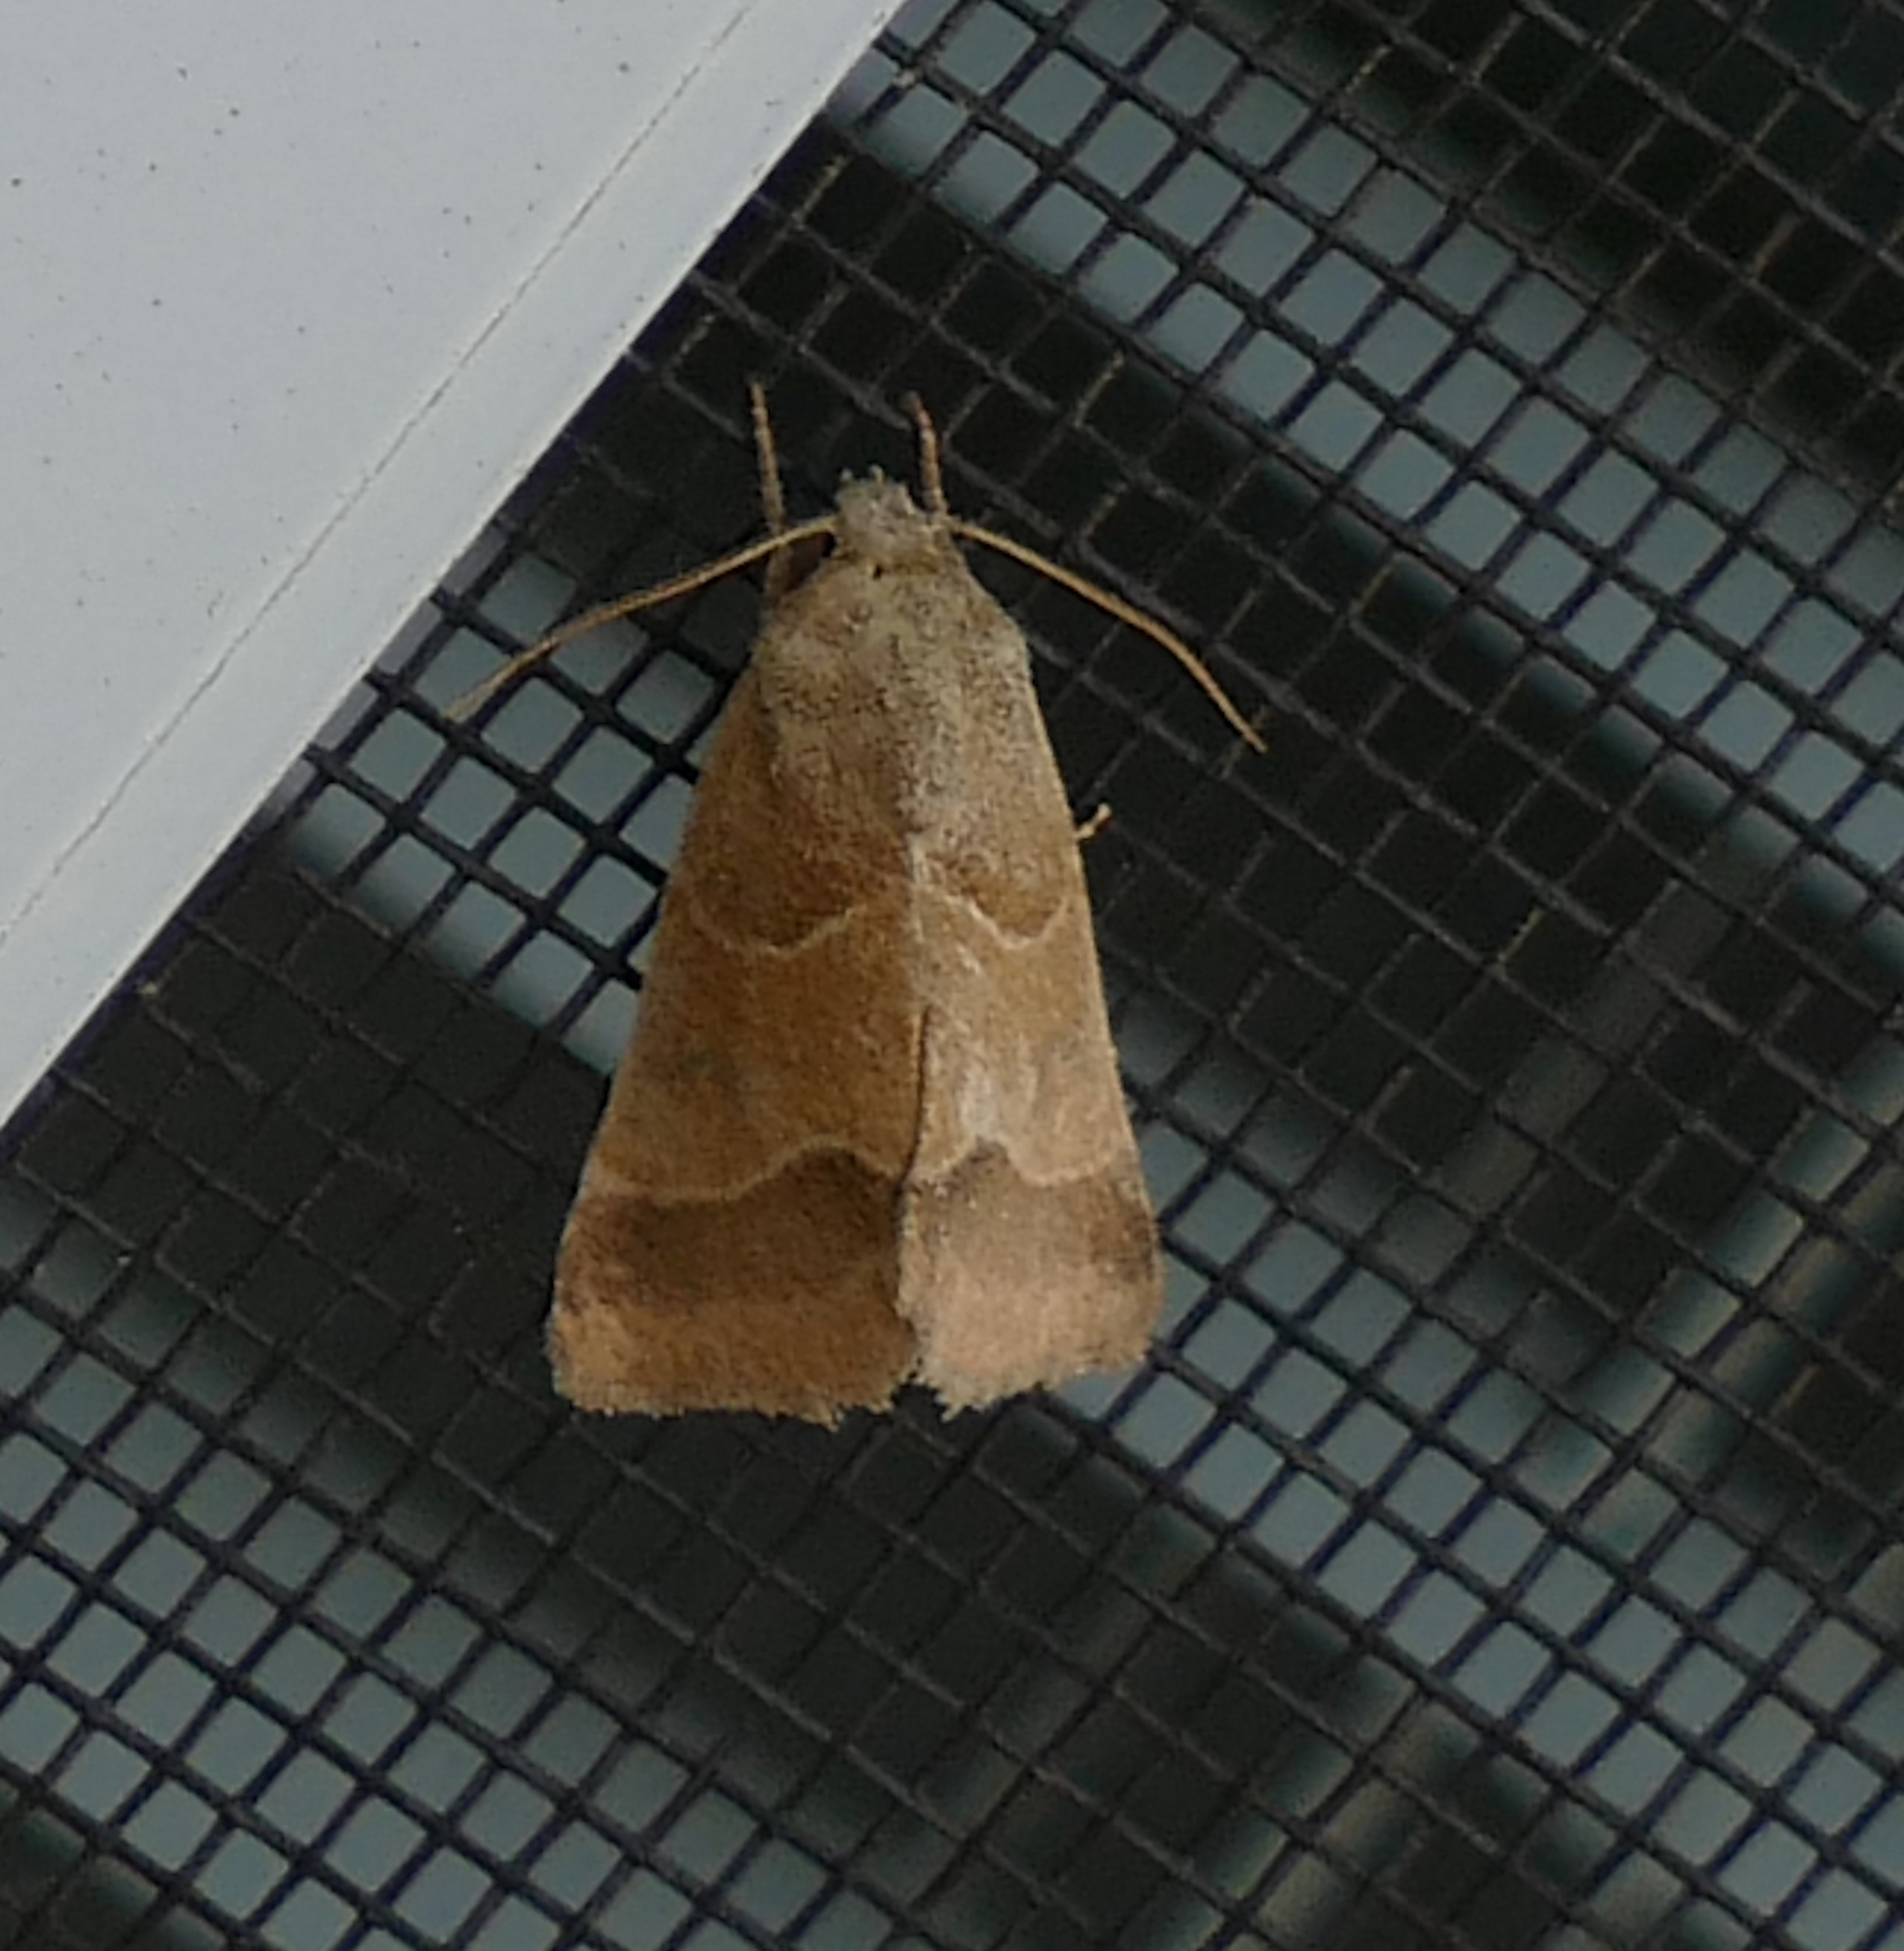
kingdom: Animalia
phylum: Arthropoda
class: Insecta
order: Lepidoptera
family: Noctuidae
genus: Schinia
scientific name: Schinia gracilenta
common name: Slender flower moth
